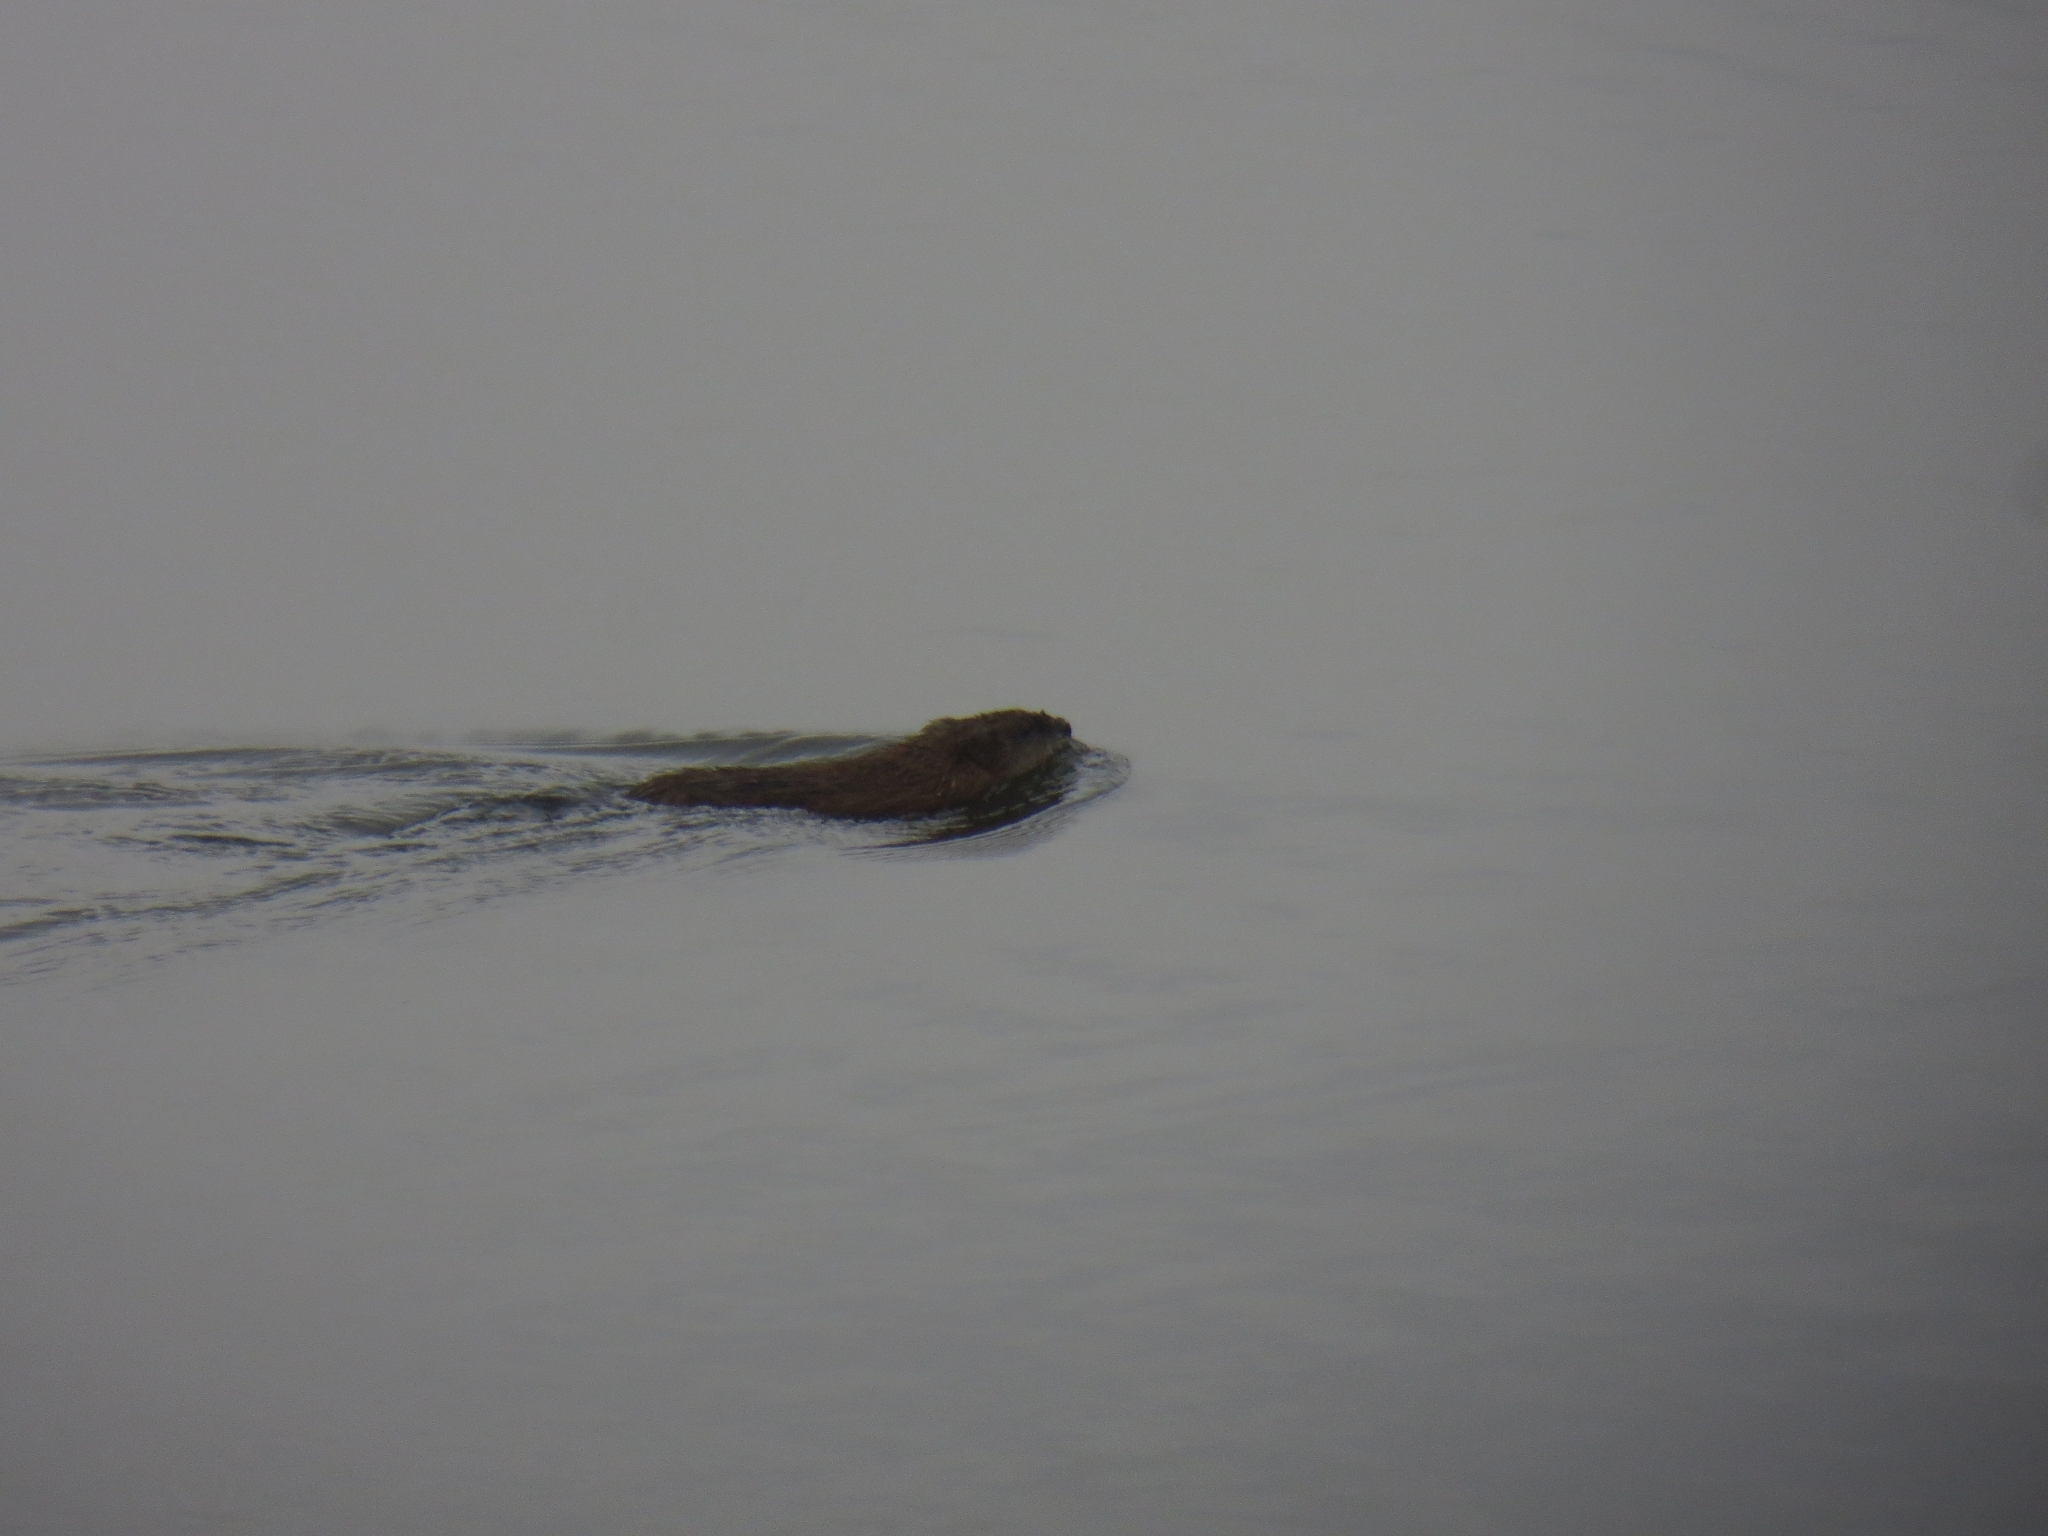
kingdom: Animalia
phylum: Chordata
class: Mammalia
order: Rodentia
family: Cricetidae
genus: Ondatra
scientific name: Ondatra zibethicus
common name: Muskrat
